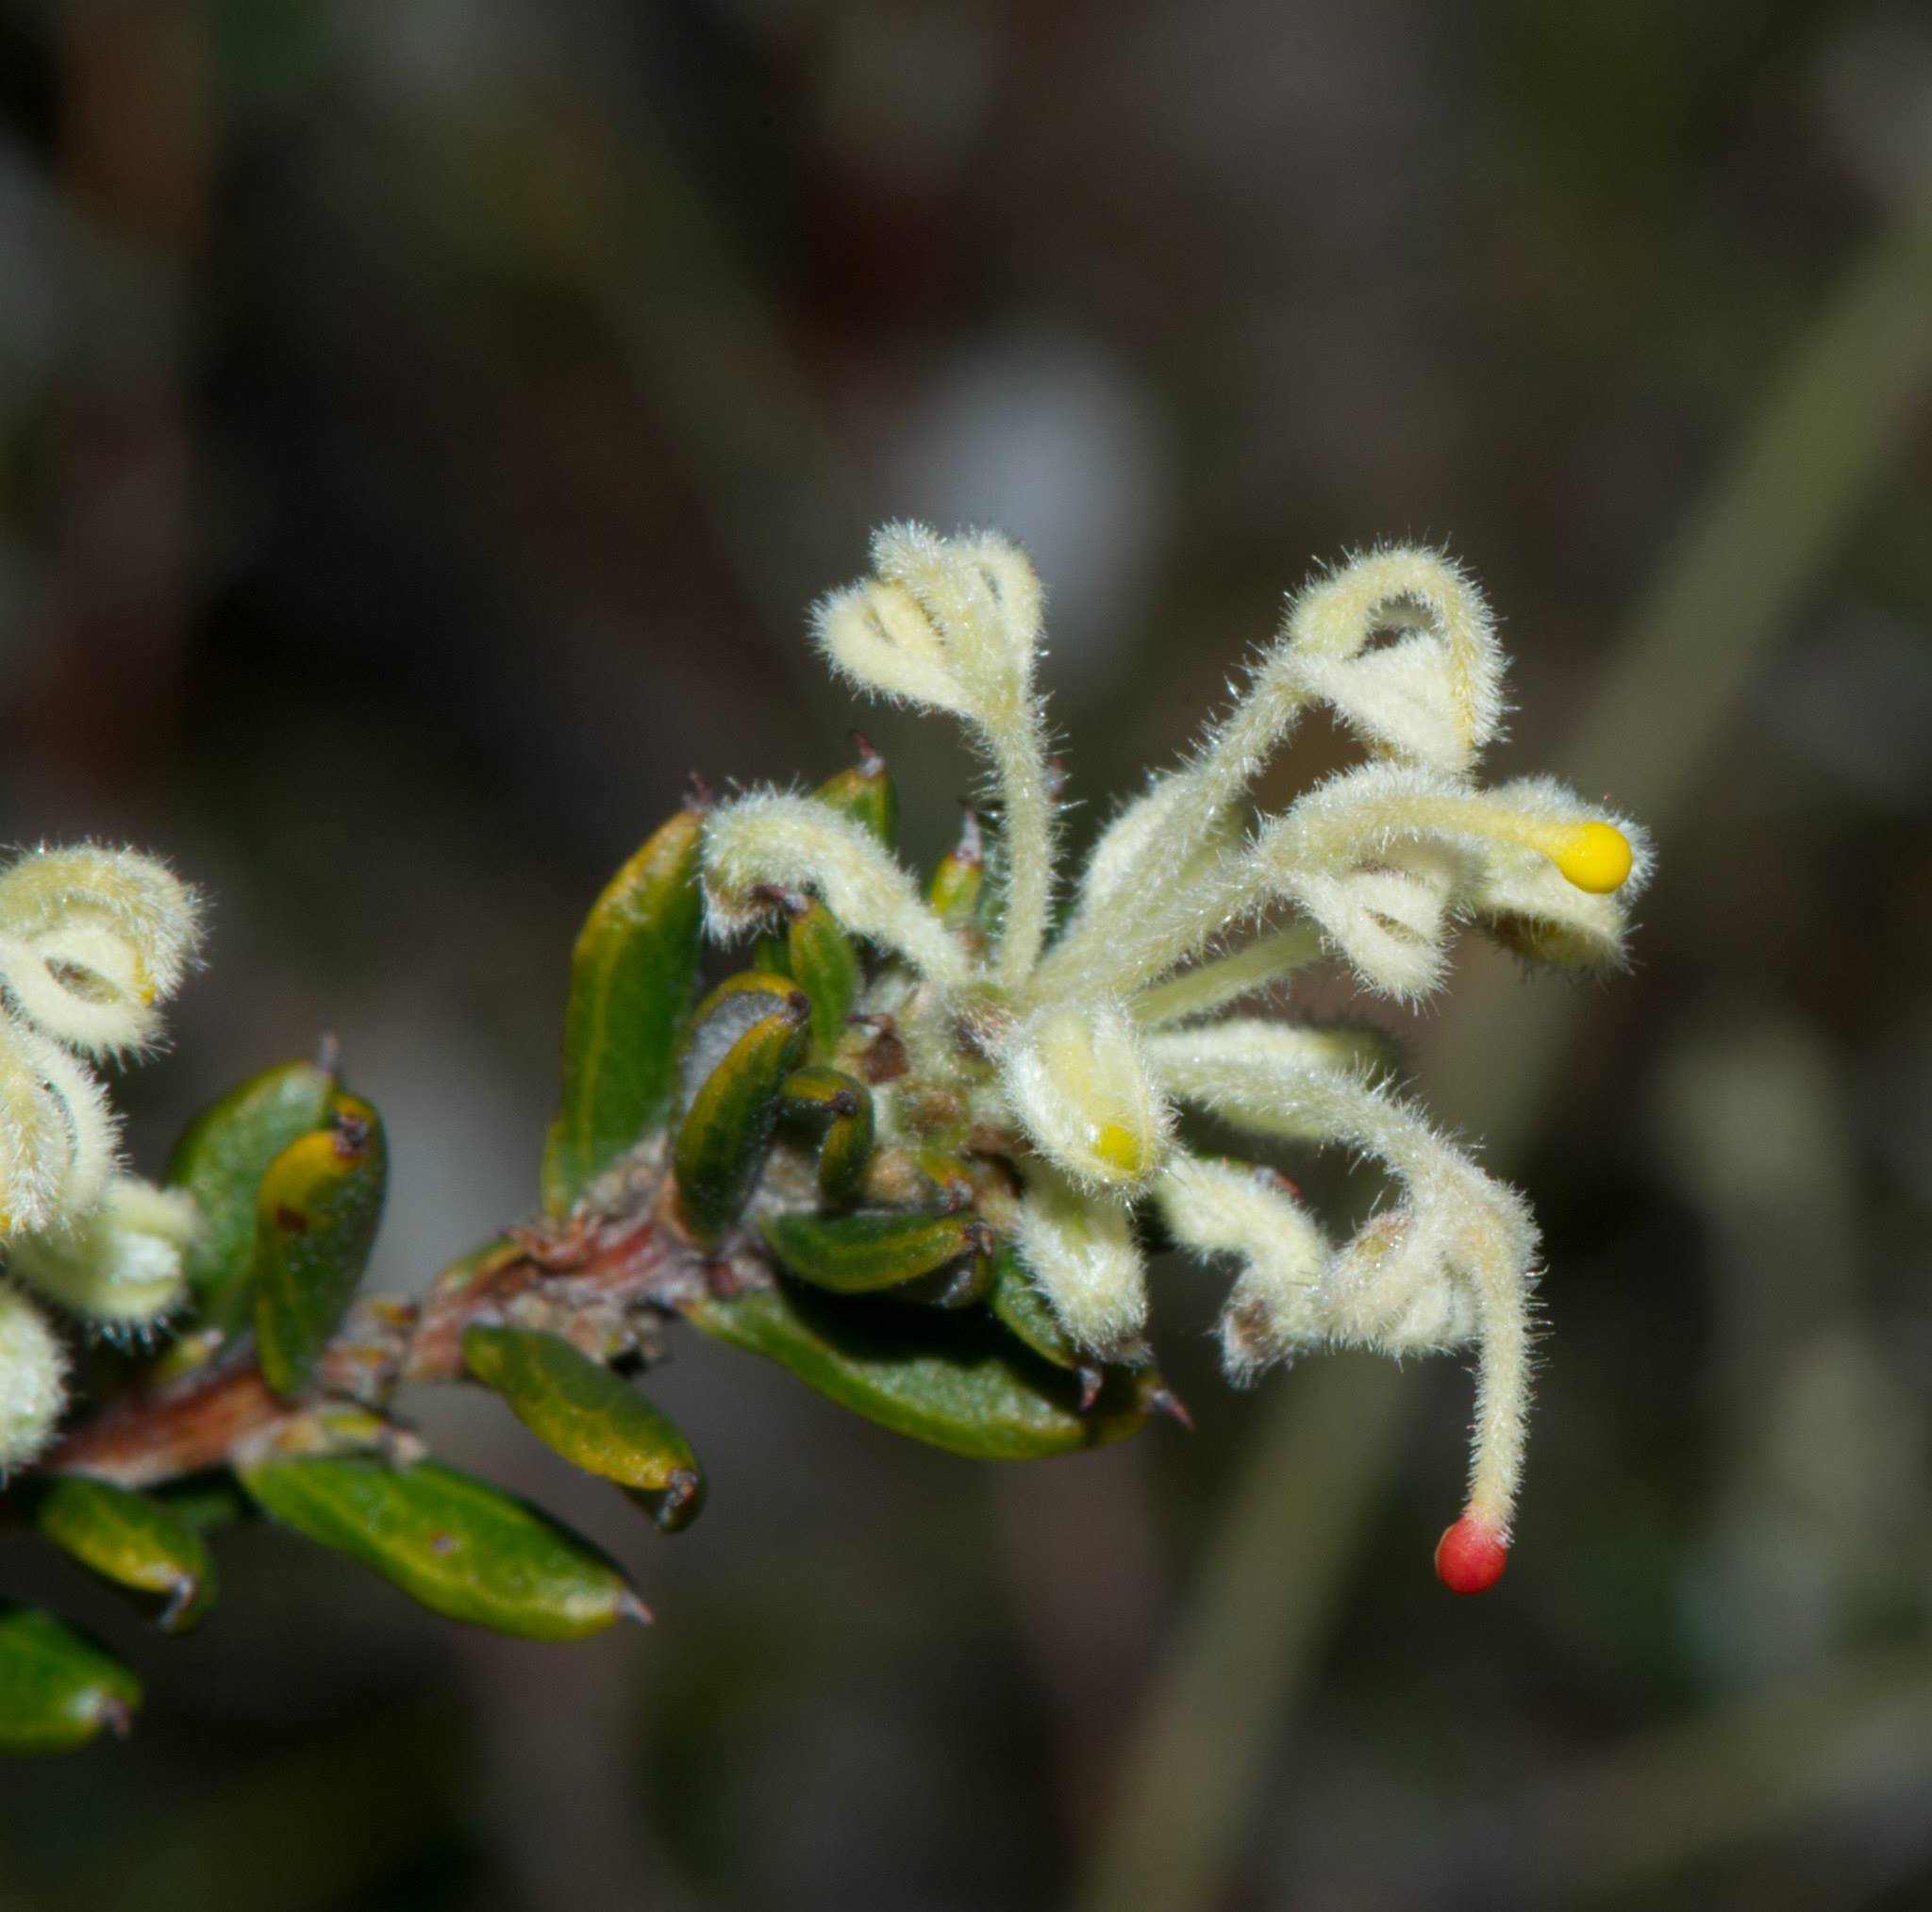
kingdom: Plantae
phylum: Tracheophyta
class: Magnoliopsida
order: Proteales
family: Proteaceae
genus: Grevillea
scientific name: Grevillea pilulifera
